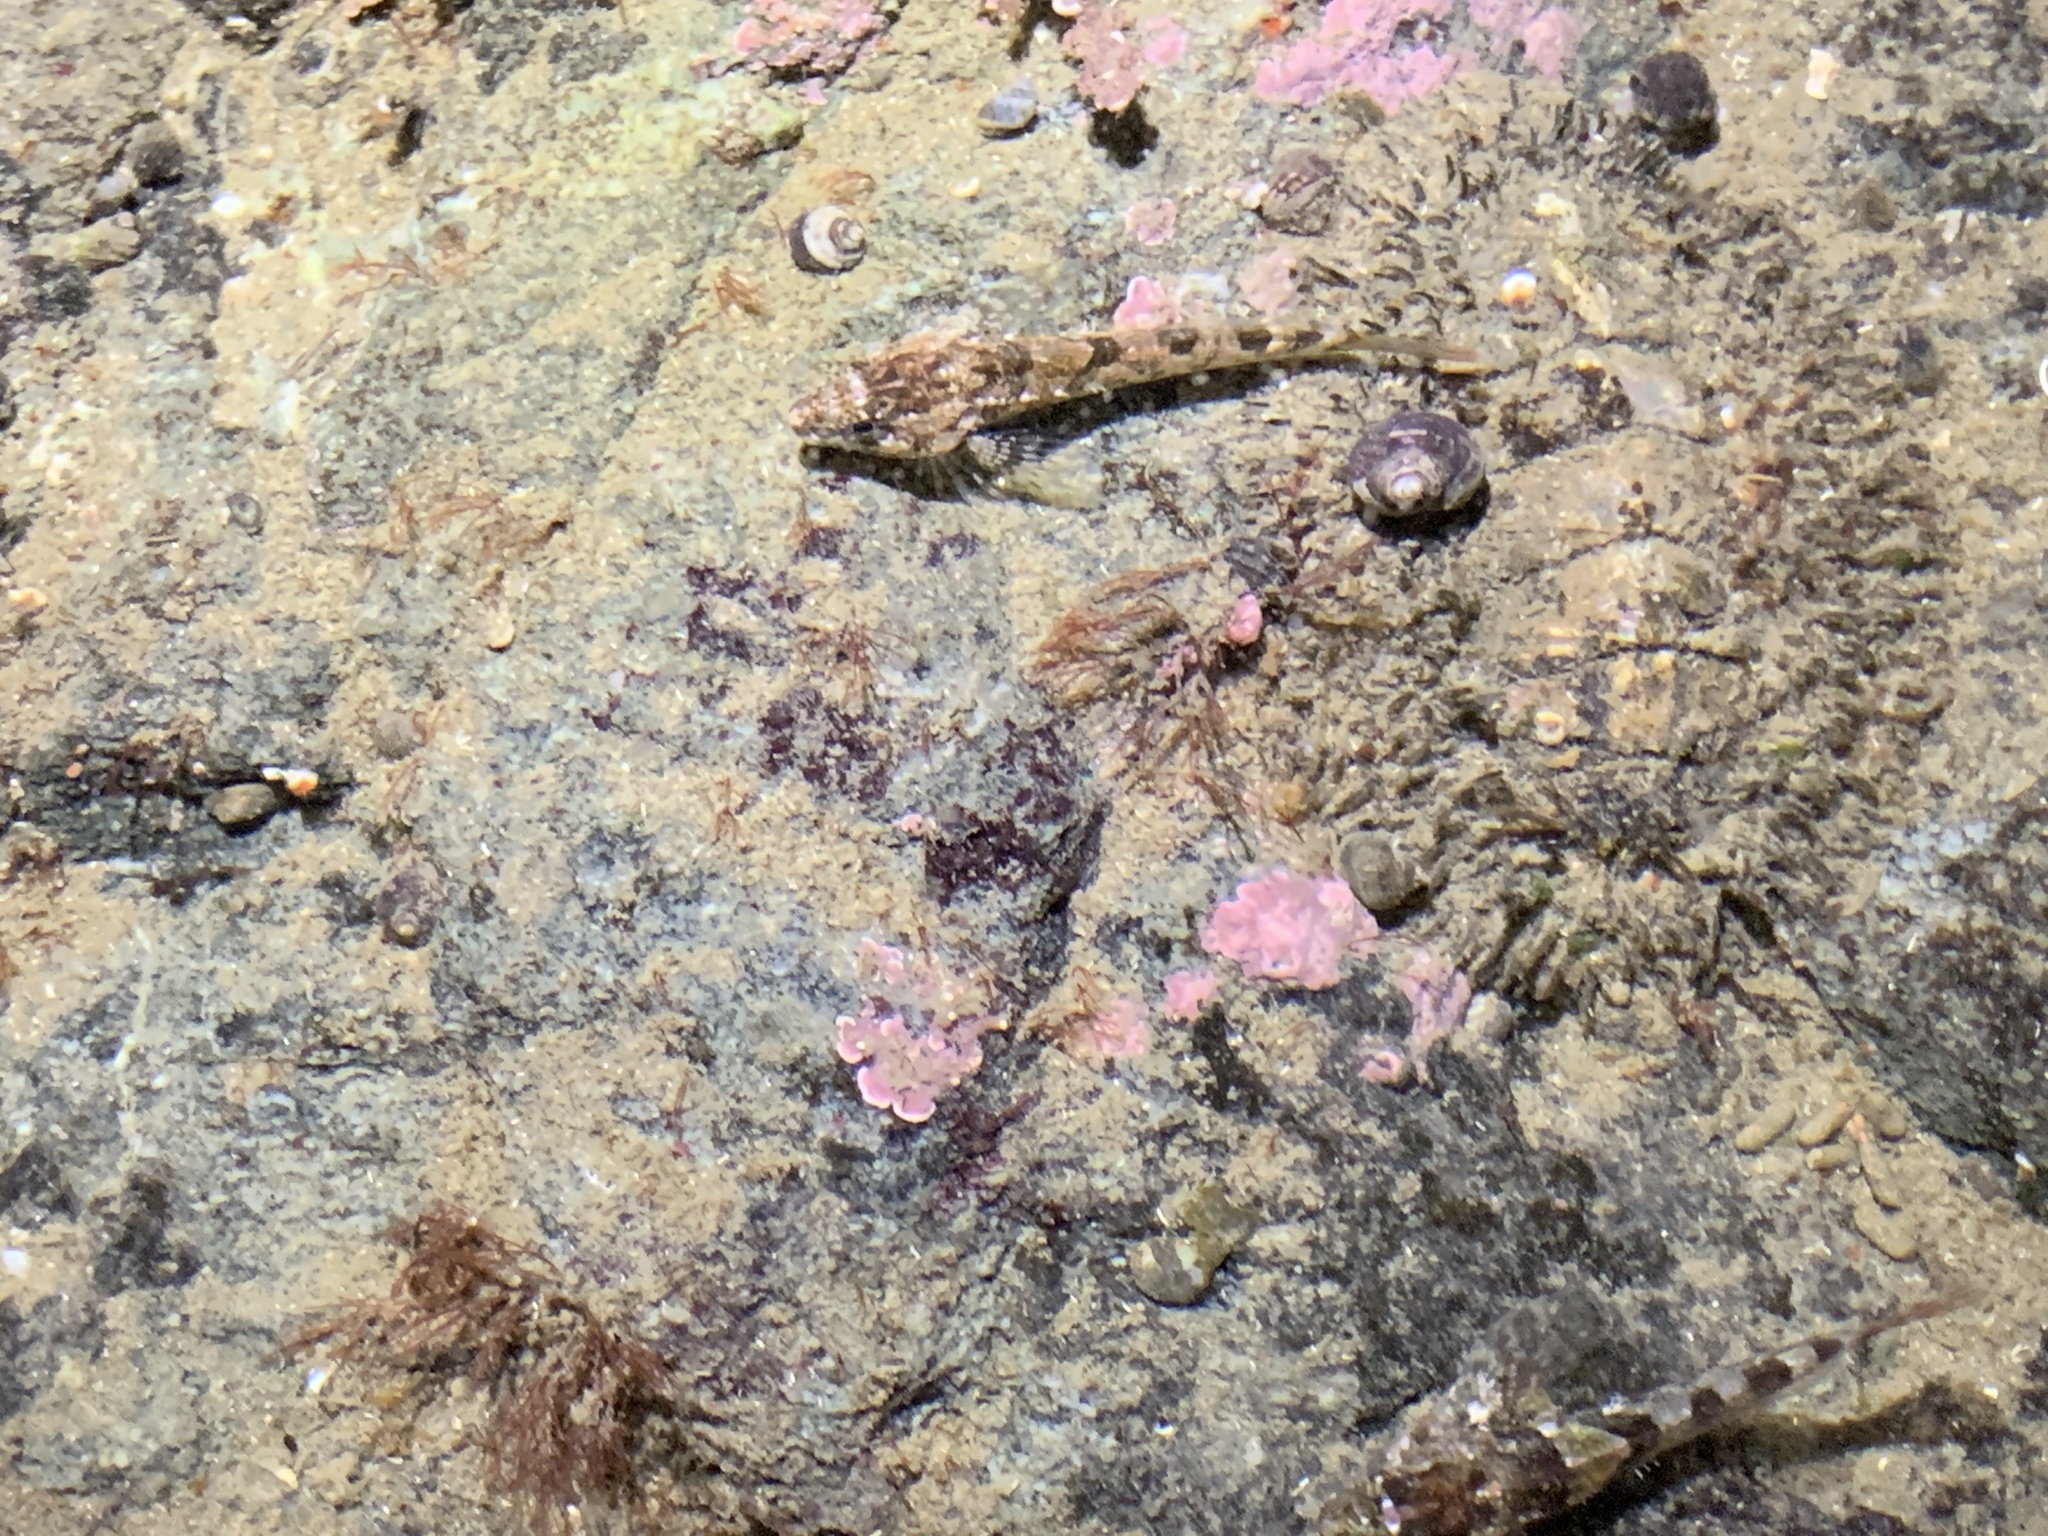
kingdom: Animalia
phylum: Chordata
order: Scorpaeniformes
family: Cottidae
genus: Oligocottus
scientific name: Oligocottus maculosus
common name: Tidepool sculpin
